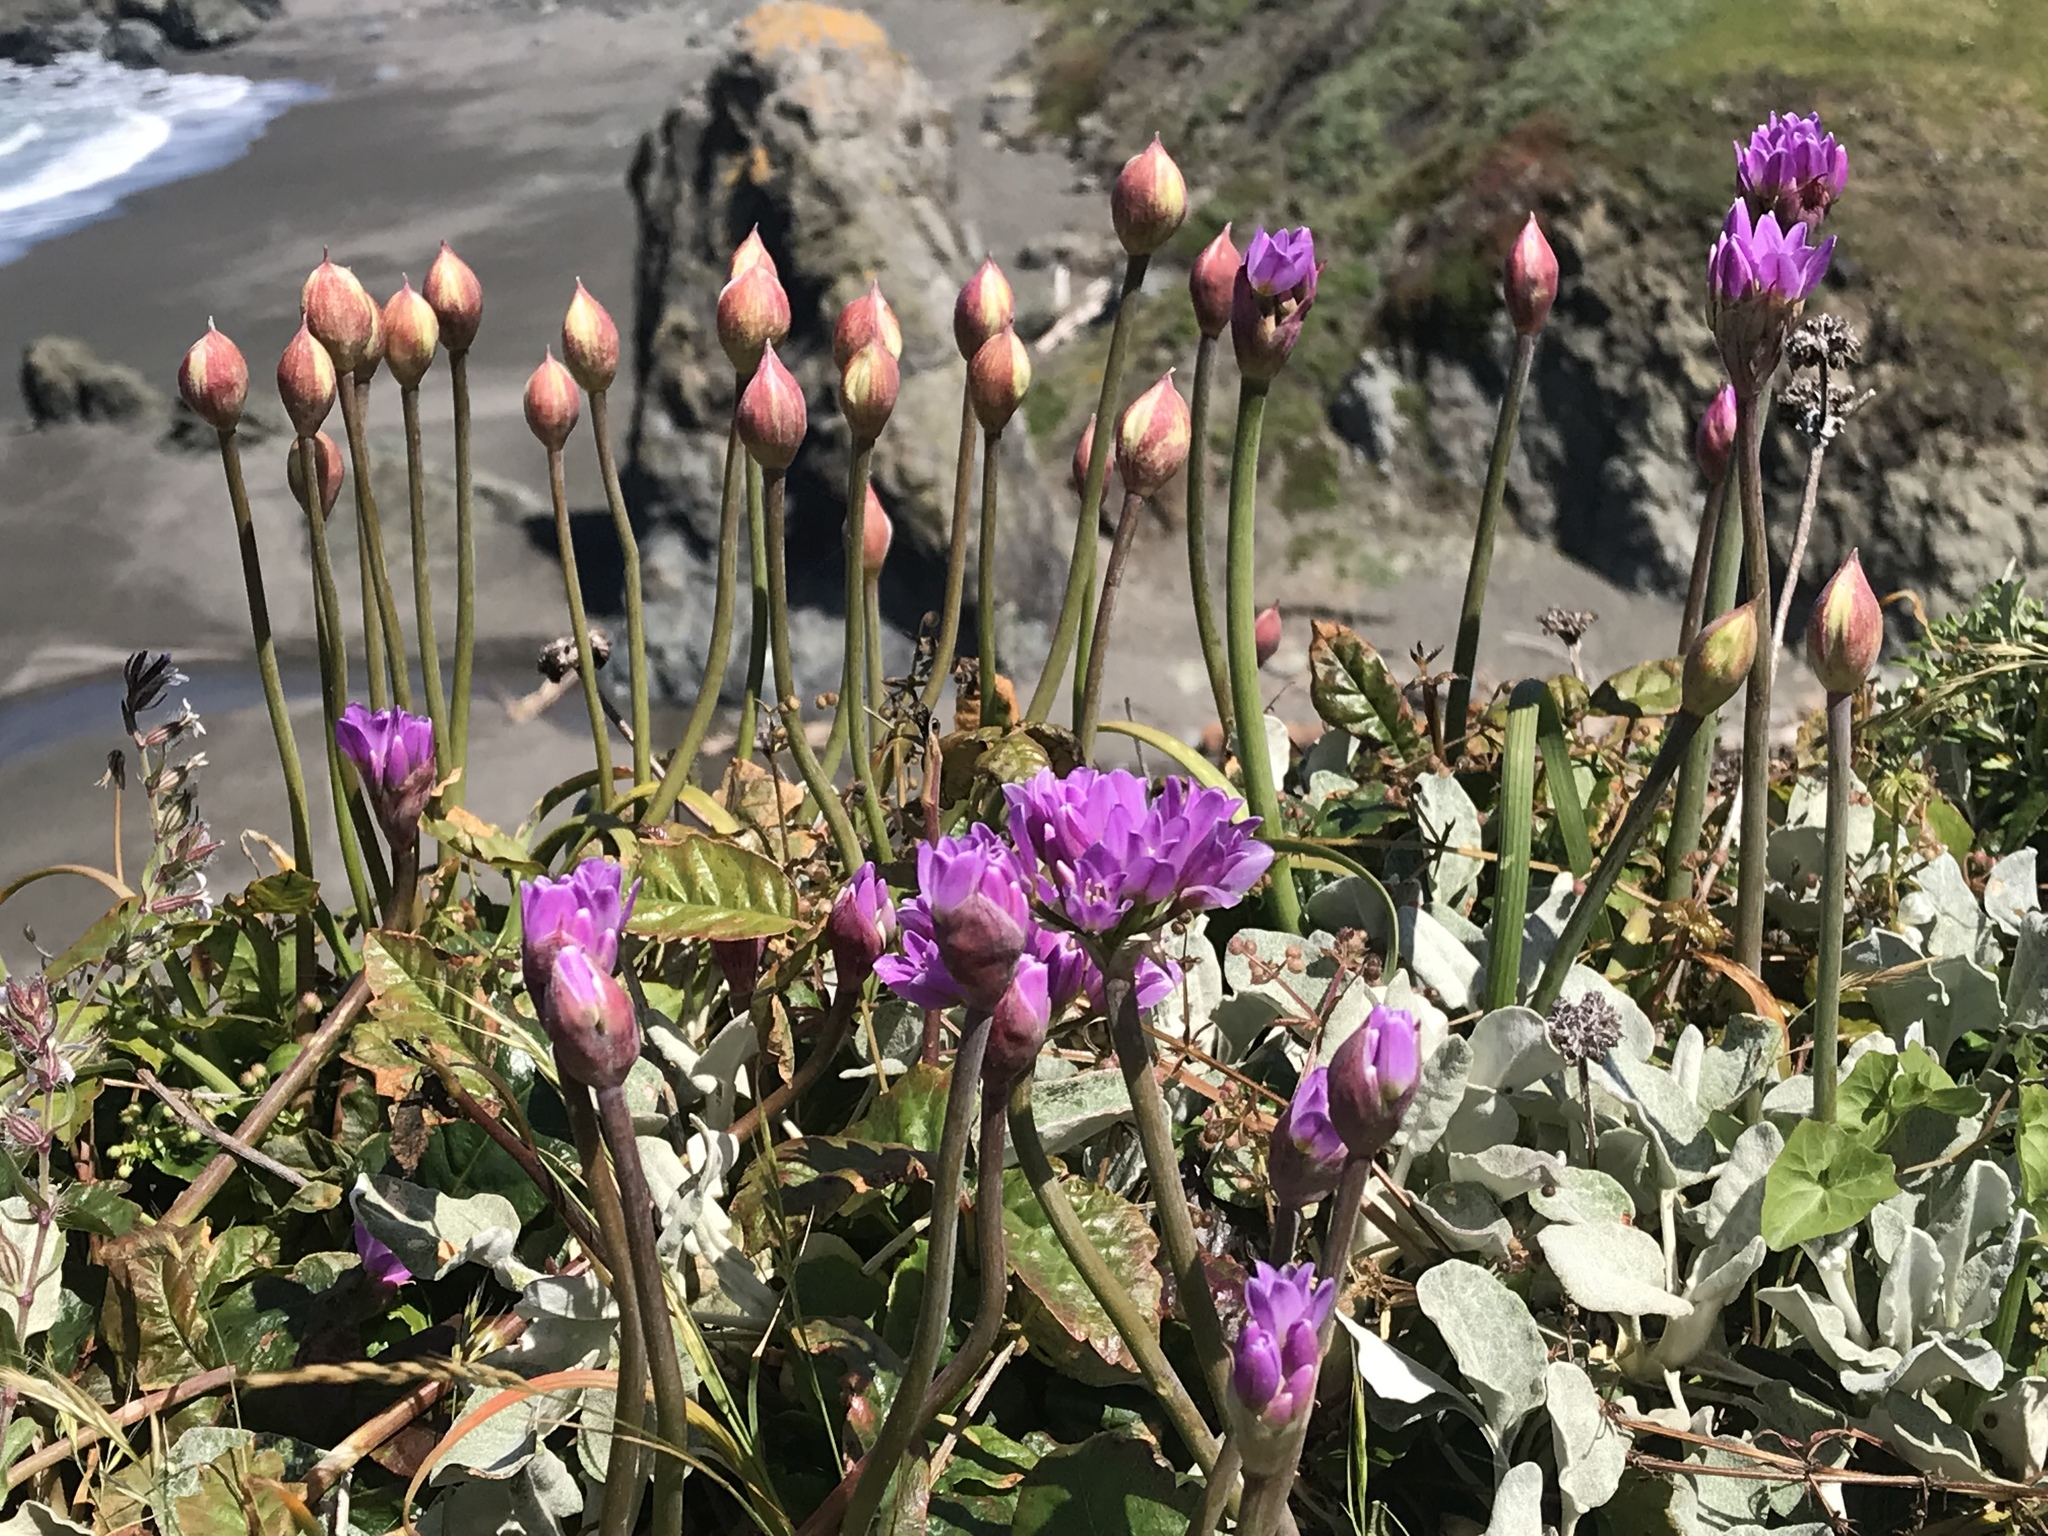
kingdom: Plantae
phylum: Tracheophyta
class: Liliopsida
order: Asparagales
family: Amaryllidaceae
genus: Allium
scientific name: Allium dichlamydeum
